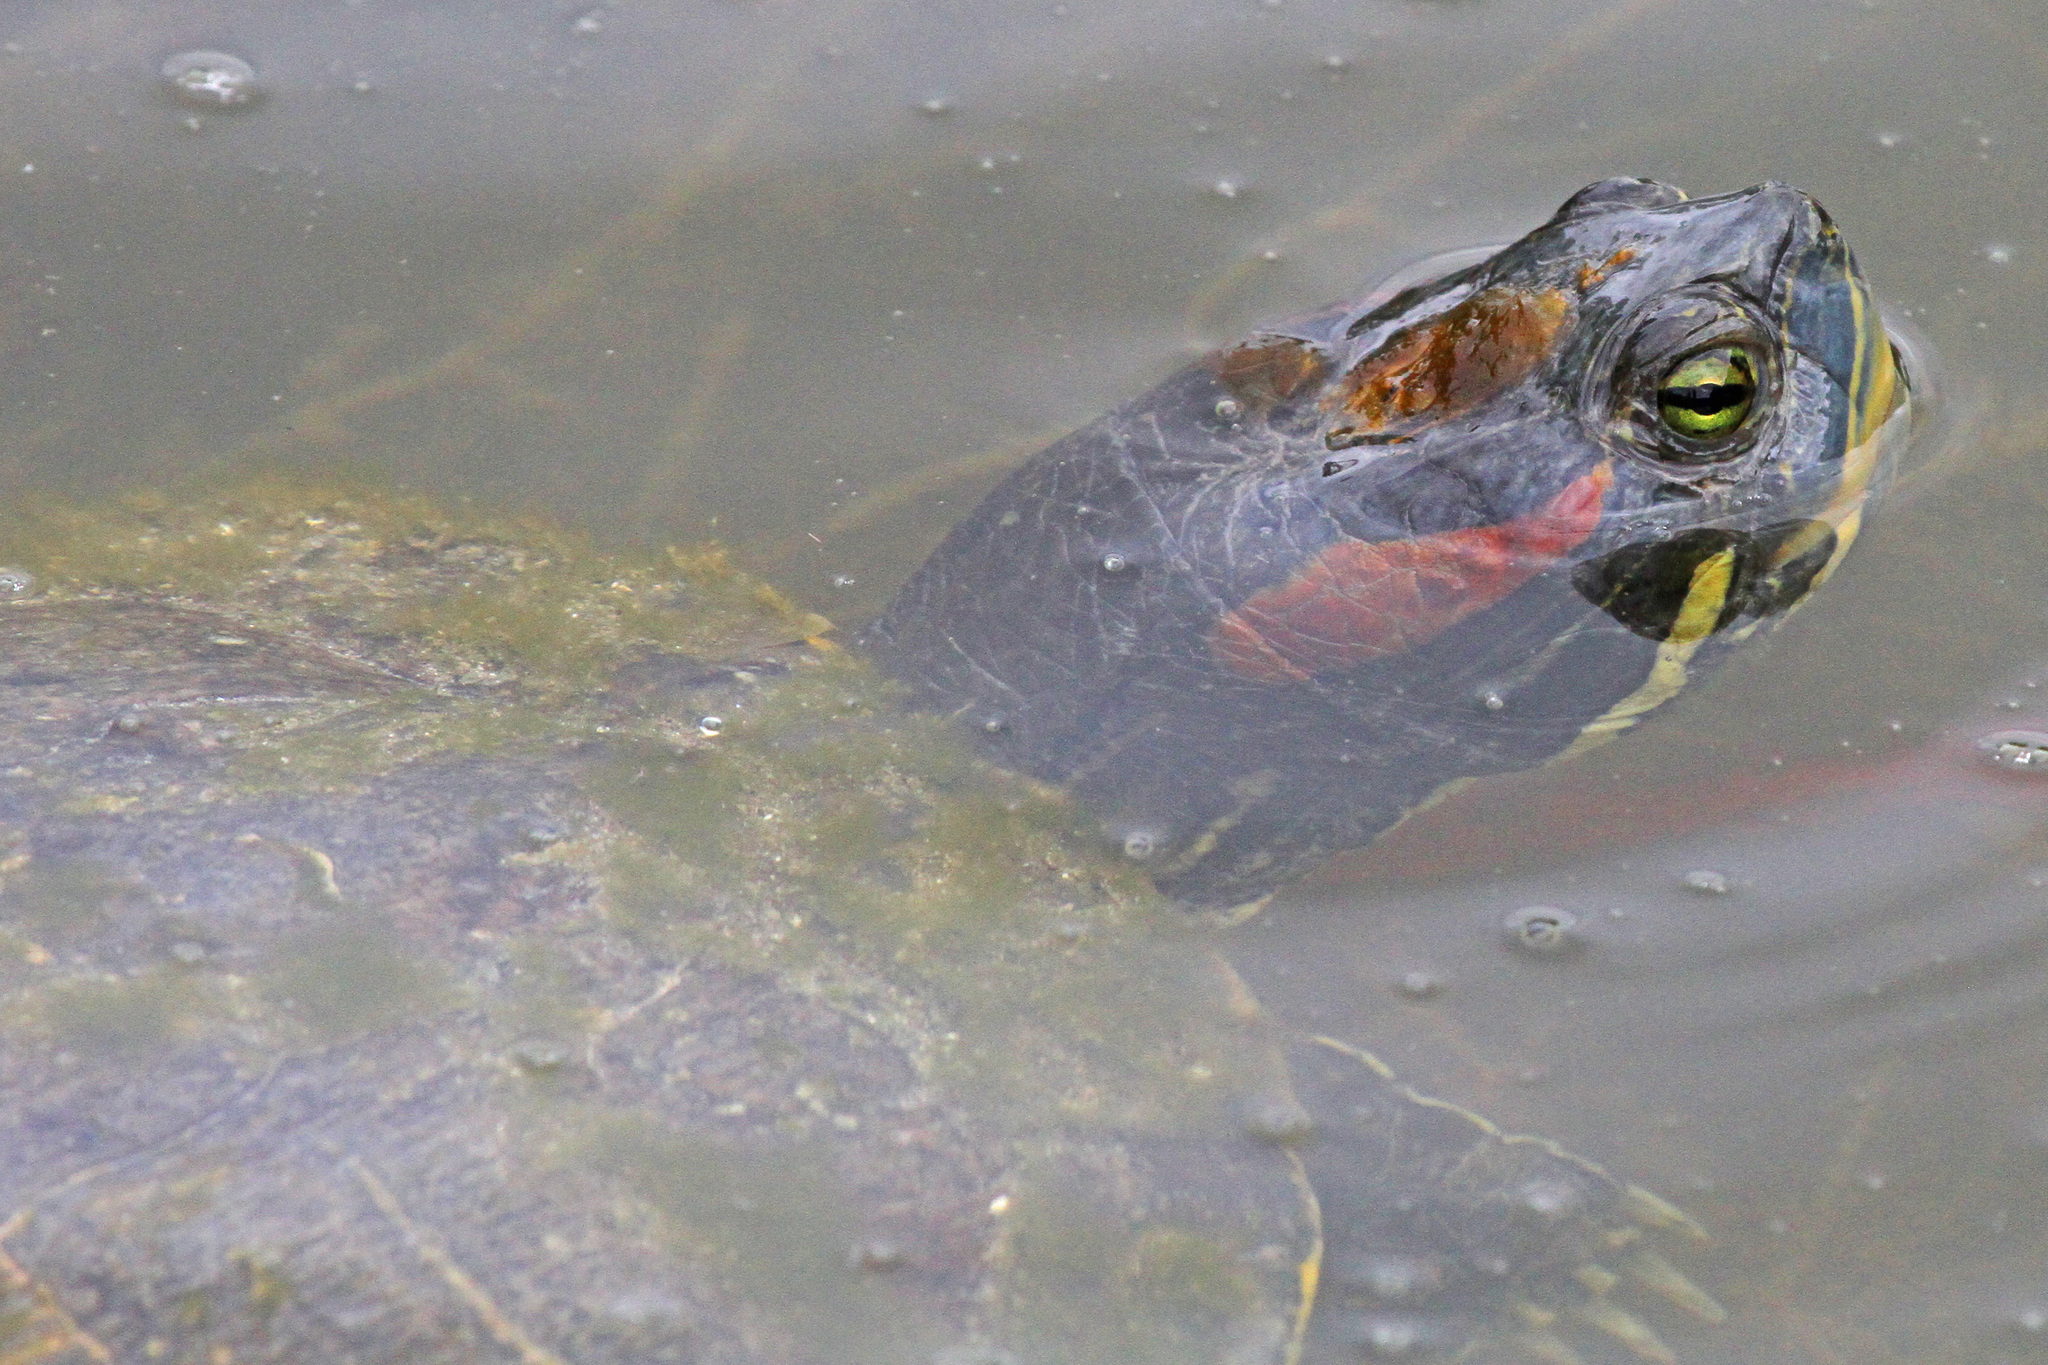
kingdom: Animalia
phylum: Chordata
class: Testudines
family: Emydidae
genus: Trachemys
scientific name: Trachemys scripta
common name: Slider
